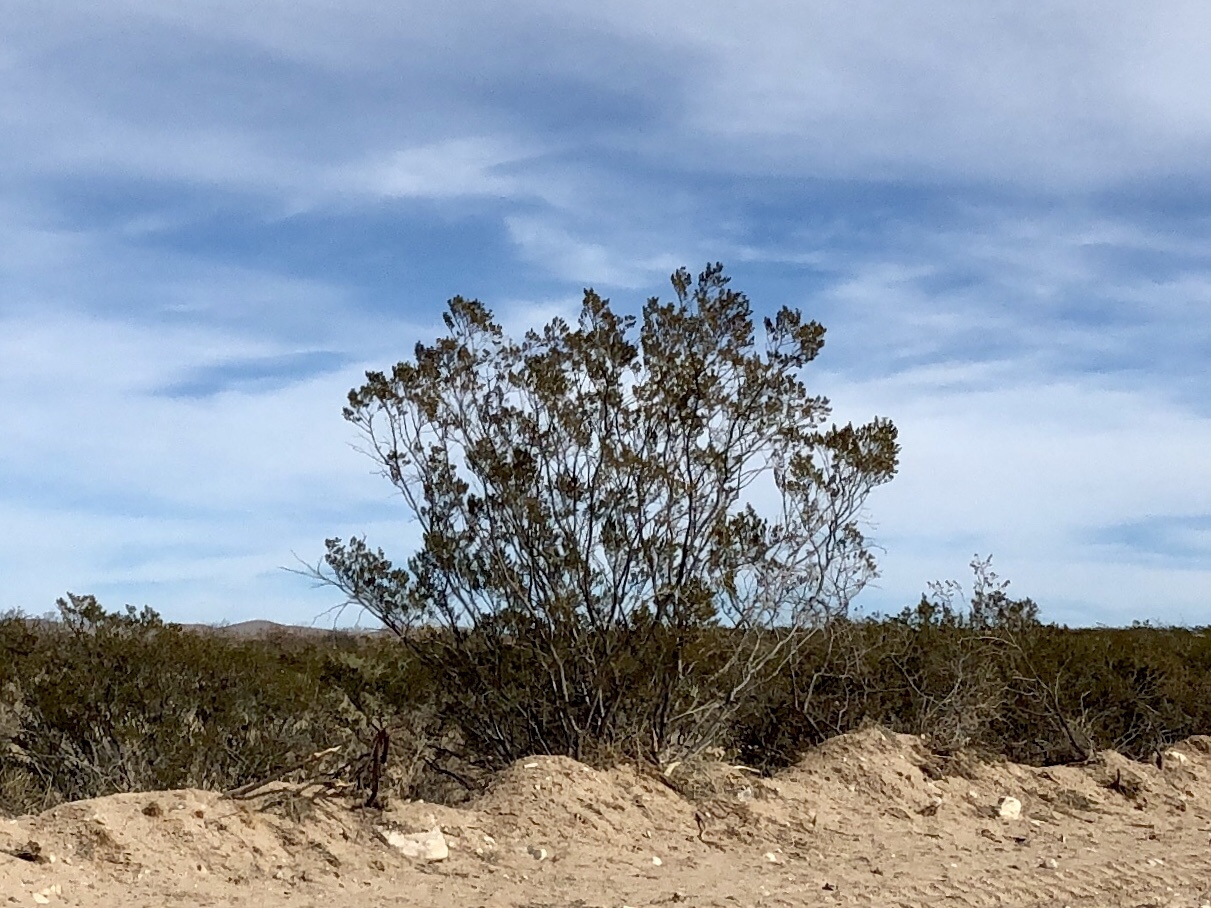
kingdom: Plantae
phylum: Tracheophyta
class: Magnoliopsida
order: Zygophyllales
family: Zygophyllaceae
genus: Larrea
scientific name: Larrea tridentata
